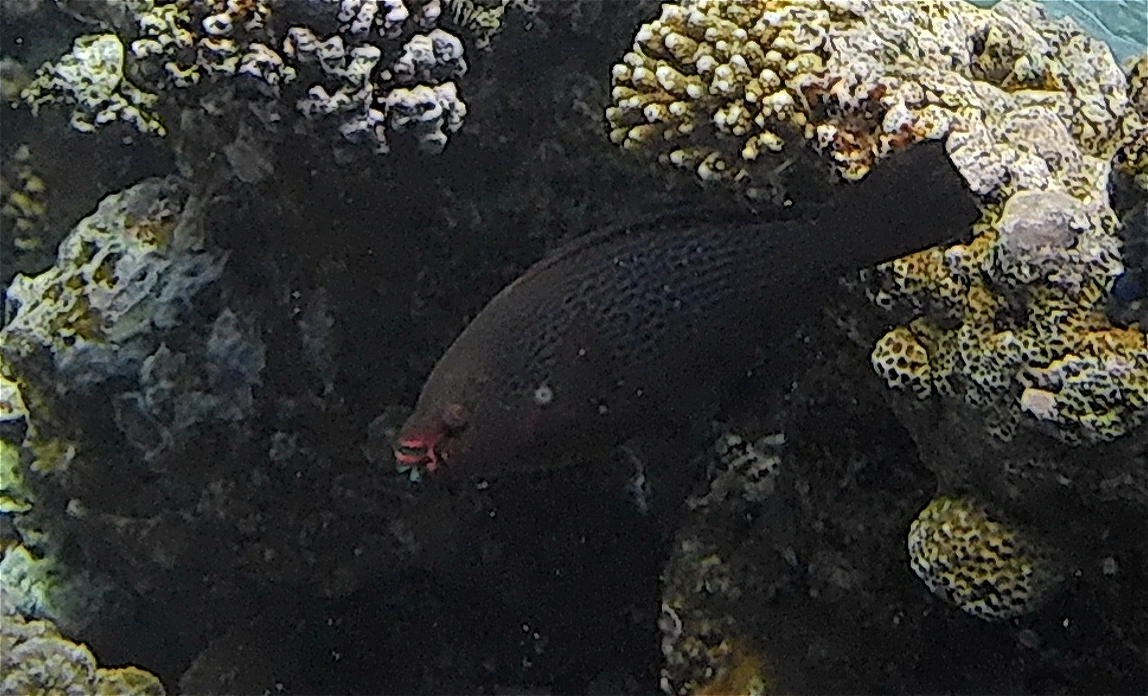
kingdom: Animalia
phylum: Chordata
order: Perciformes
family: Scaridae
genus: Scarus
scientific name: Scarus niger
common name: Dusky parrotfish
